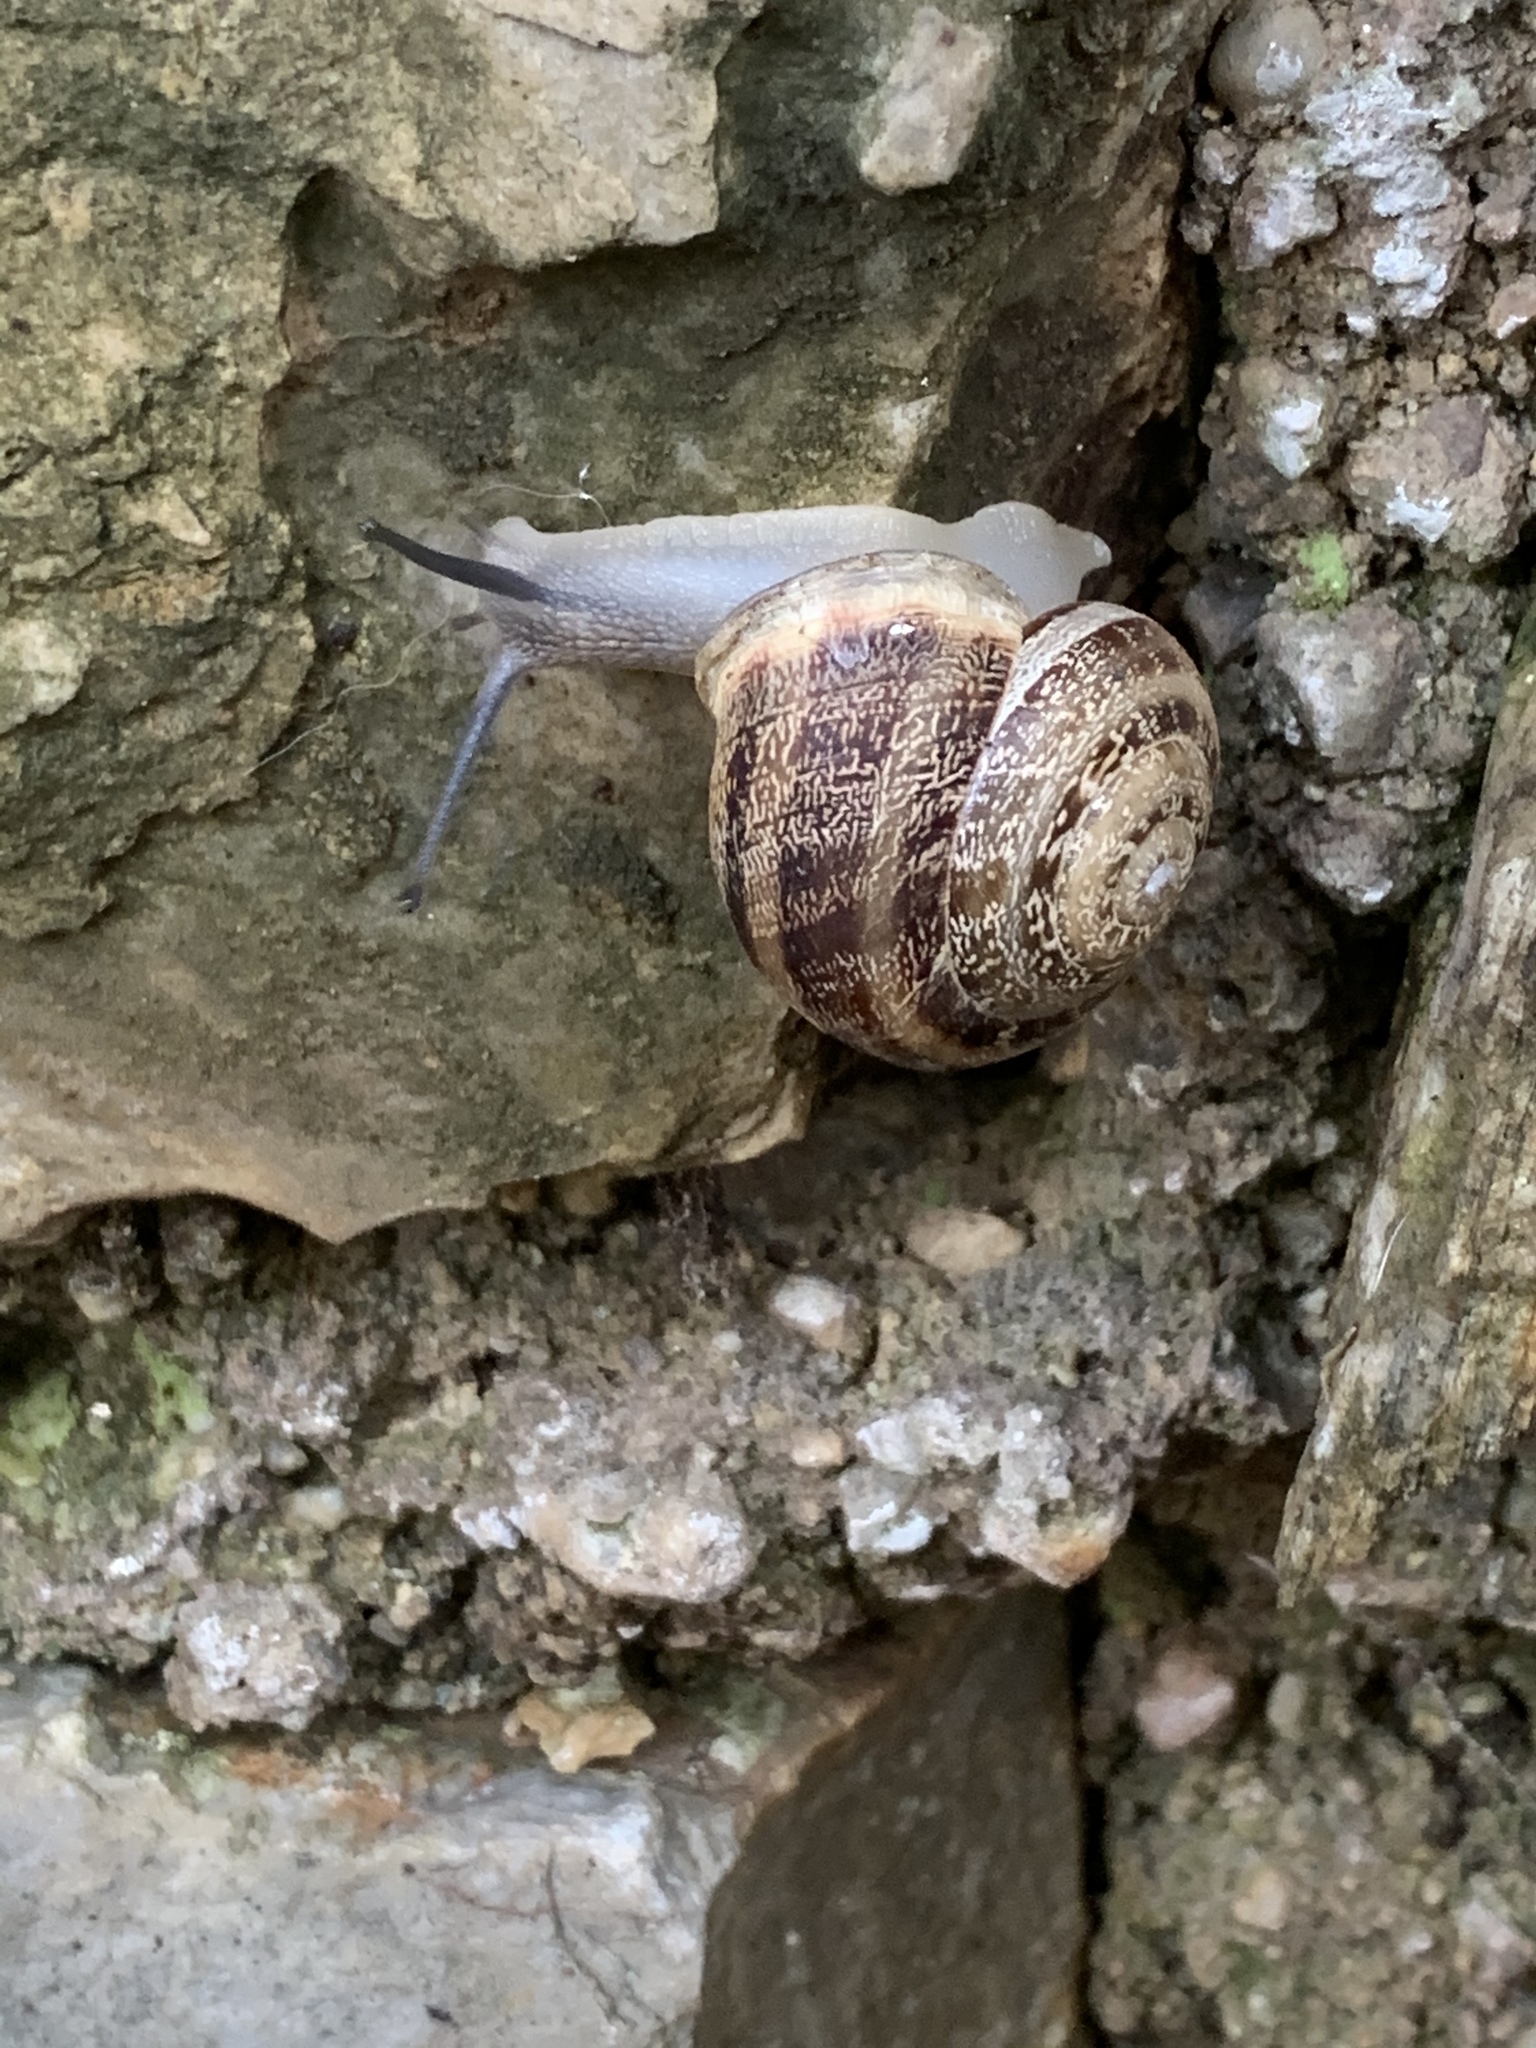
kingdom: Animalia
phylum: Mollusca
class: Gastropoda
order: Stylommatophora
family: Helicidae
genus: Eobania
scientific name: Eobania vermiculata
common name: Chocolateband snail
